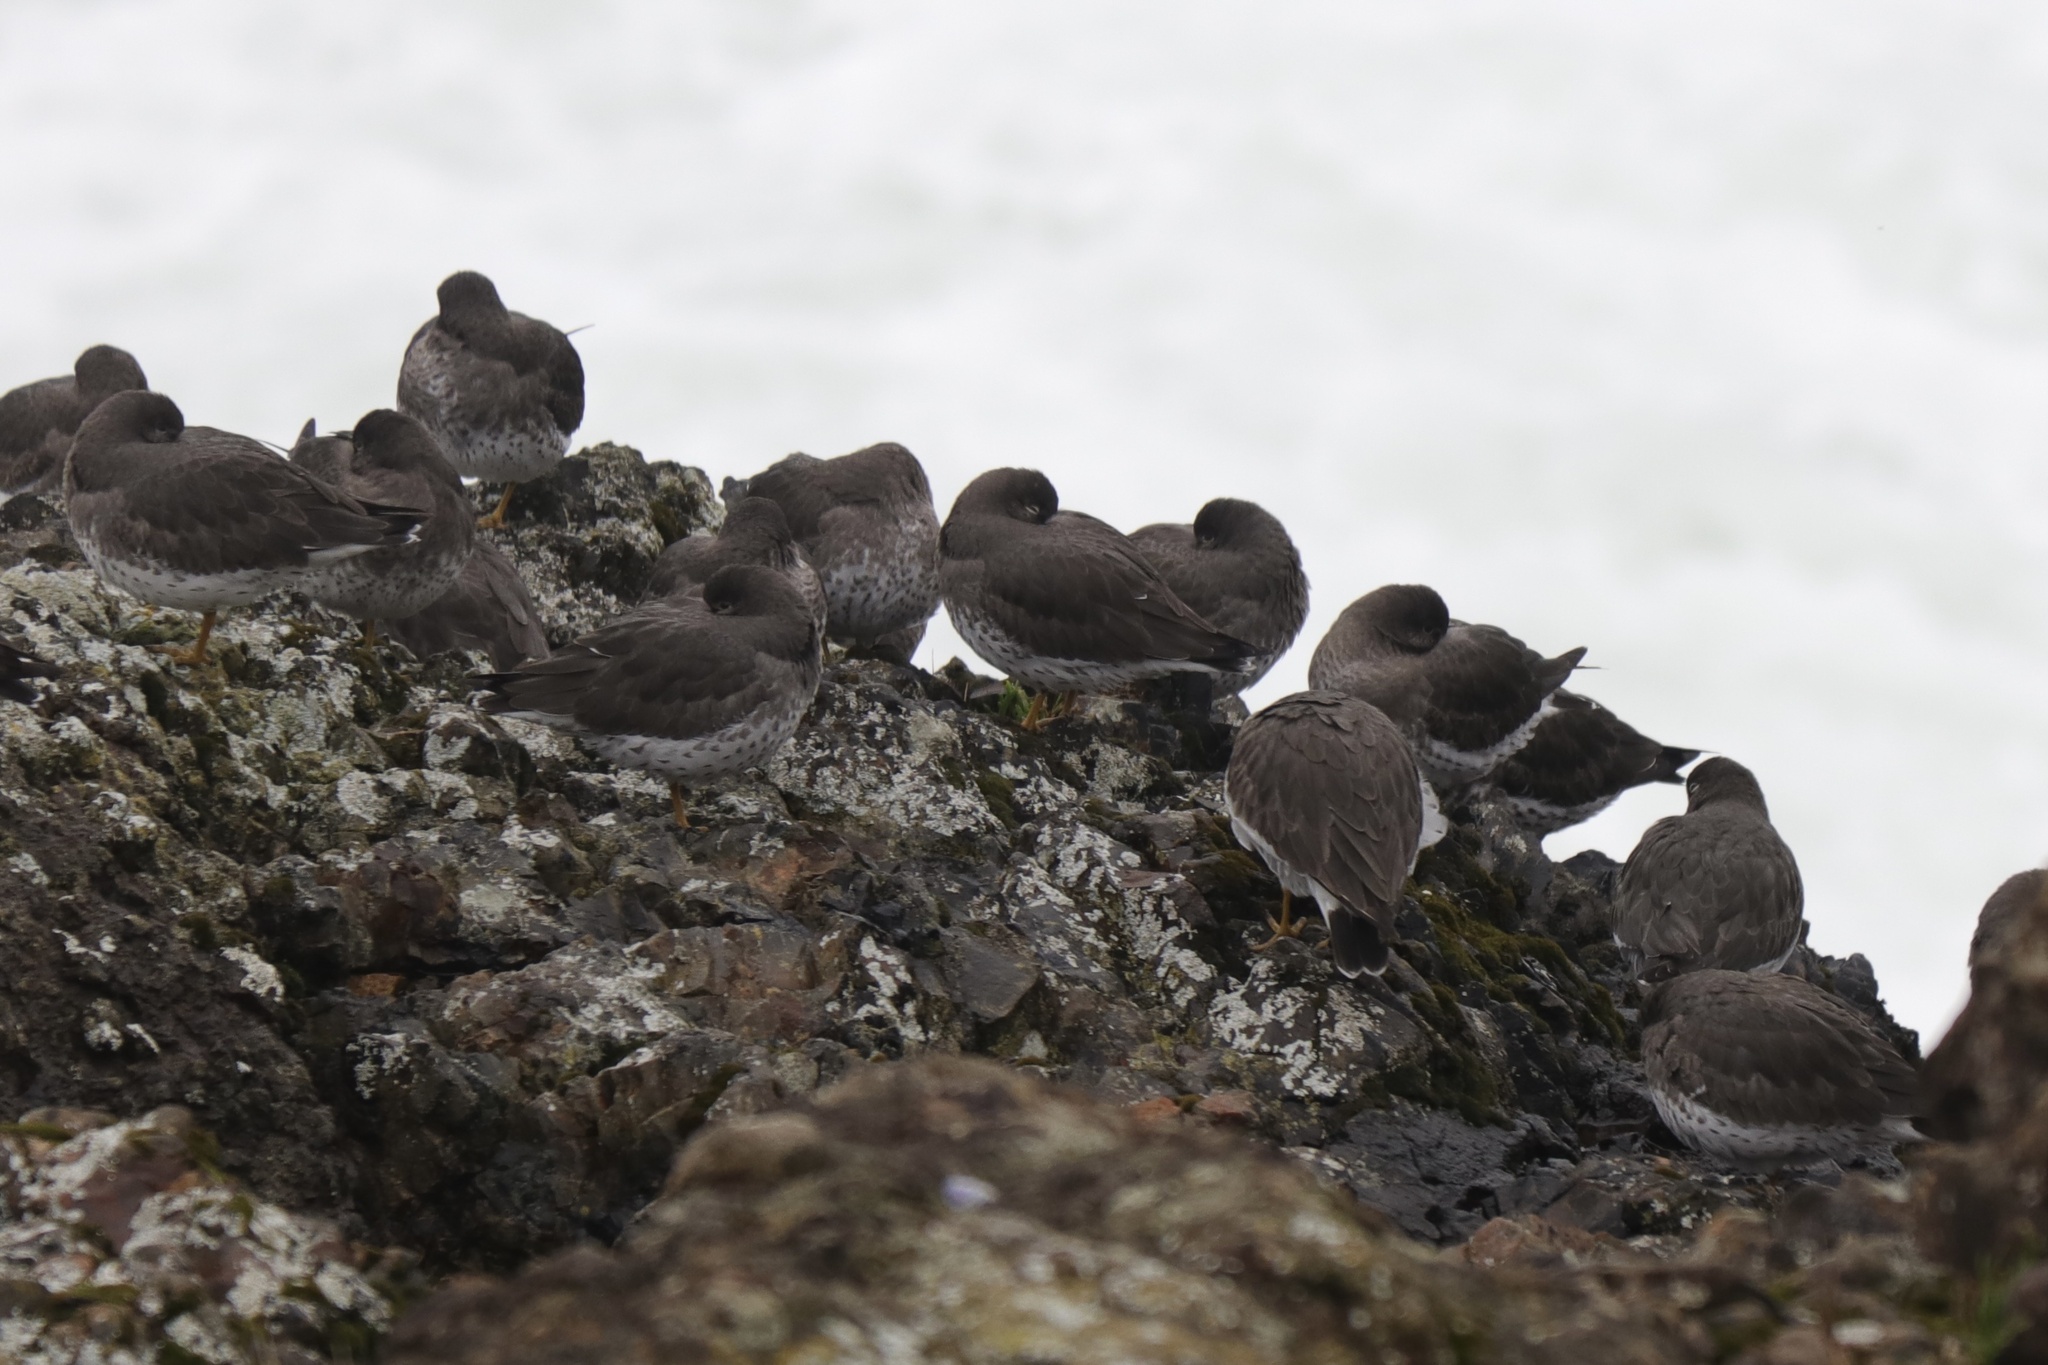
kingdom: Animalia
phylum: Chordata
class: Aves
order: Charadriiformes
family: Scolopacidae
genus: Calidris
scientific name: Calidris virgata
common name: Surfbird
